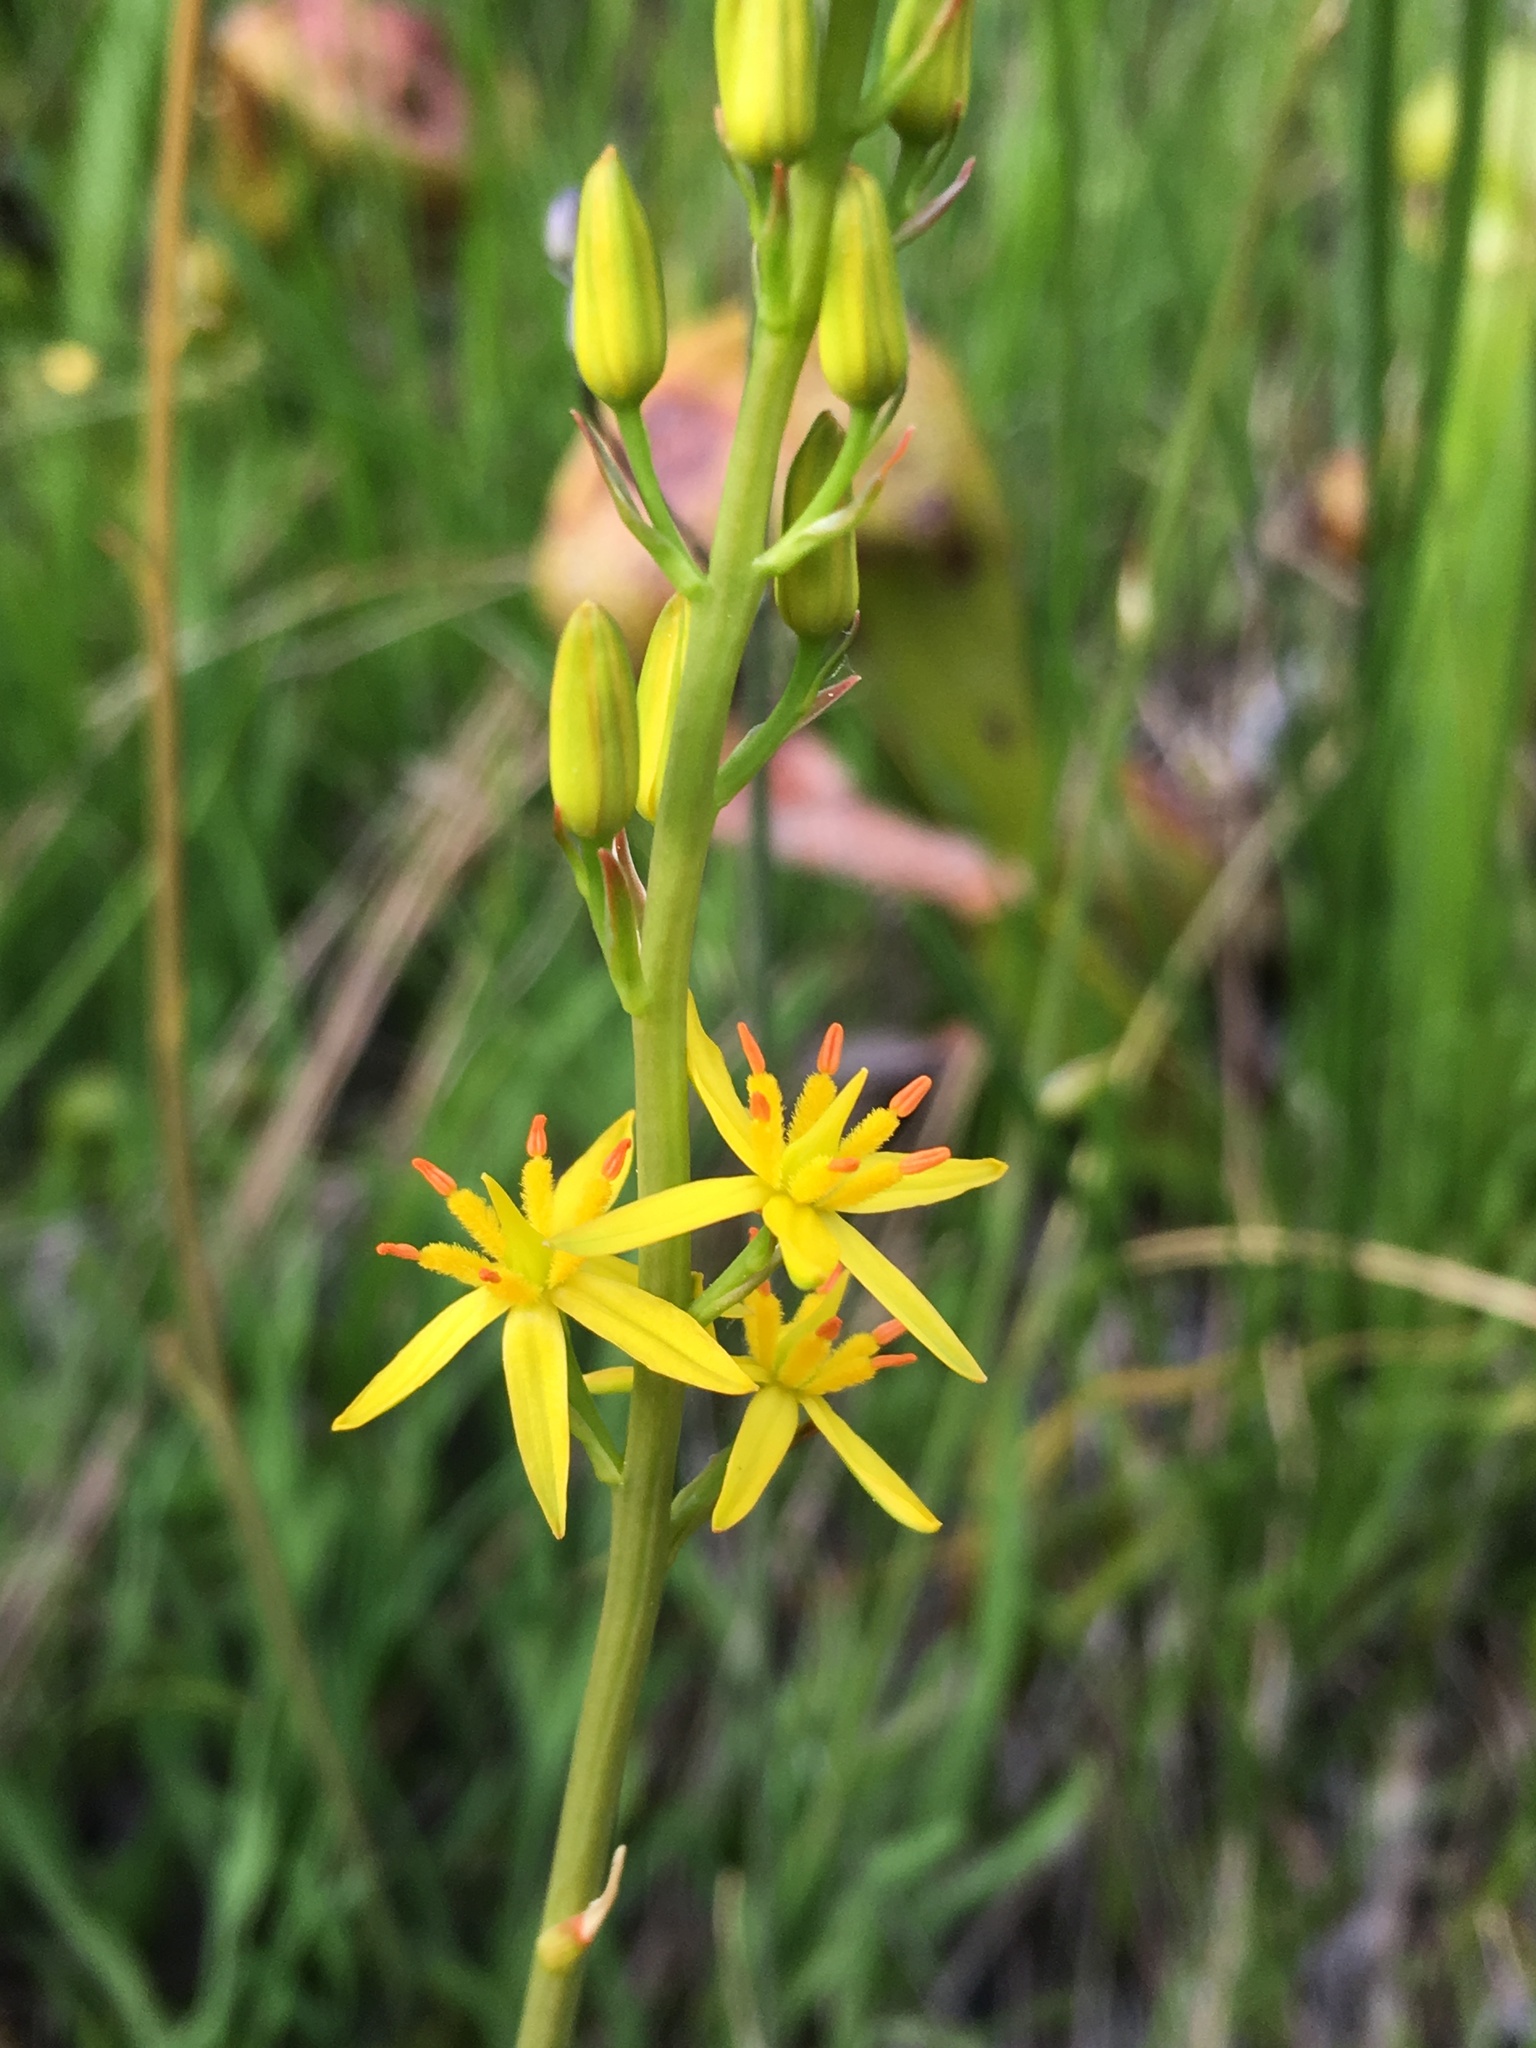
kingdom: Plantae
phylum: Tracheophyta
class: Liliopsida
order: Dioscoreales
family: Nartheciaceae
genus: Narthecium
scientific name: Narthecium californicum
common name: California bog-asphodel
